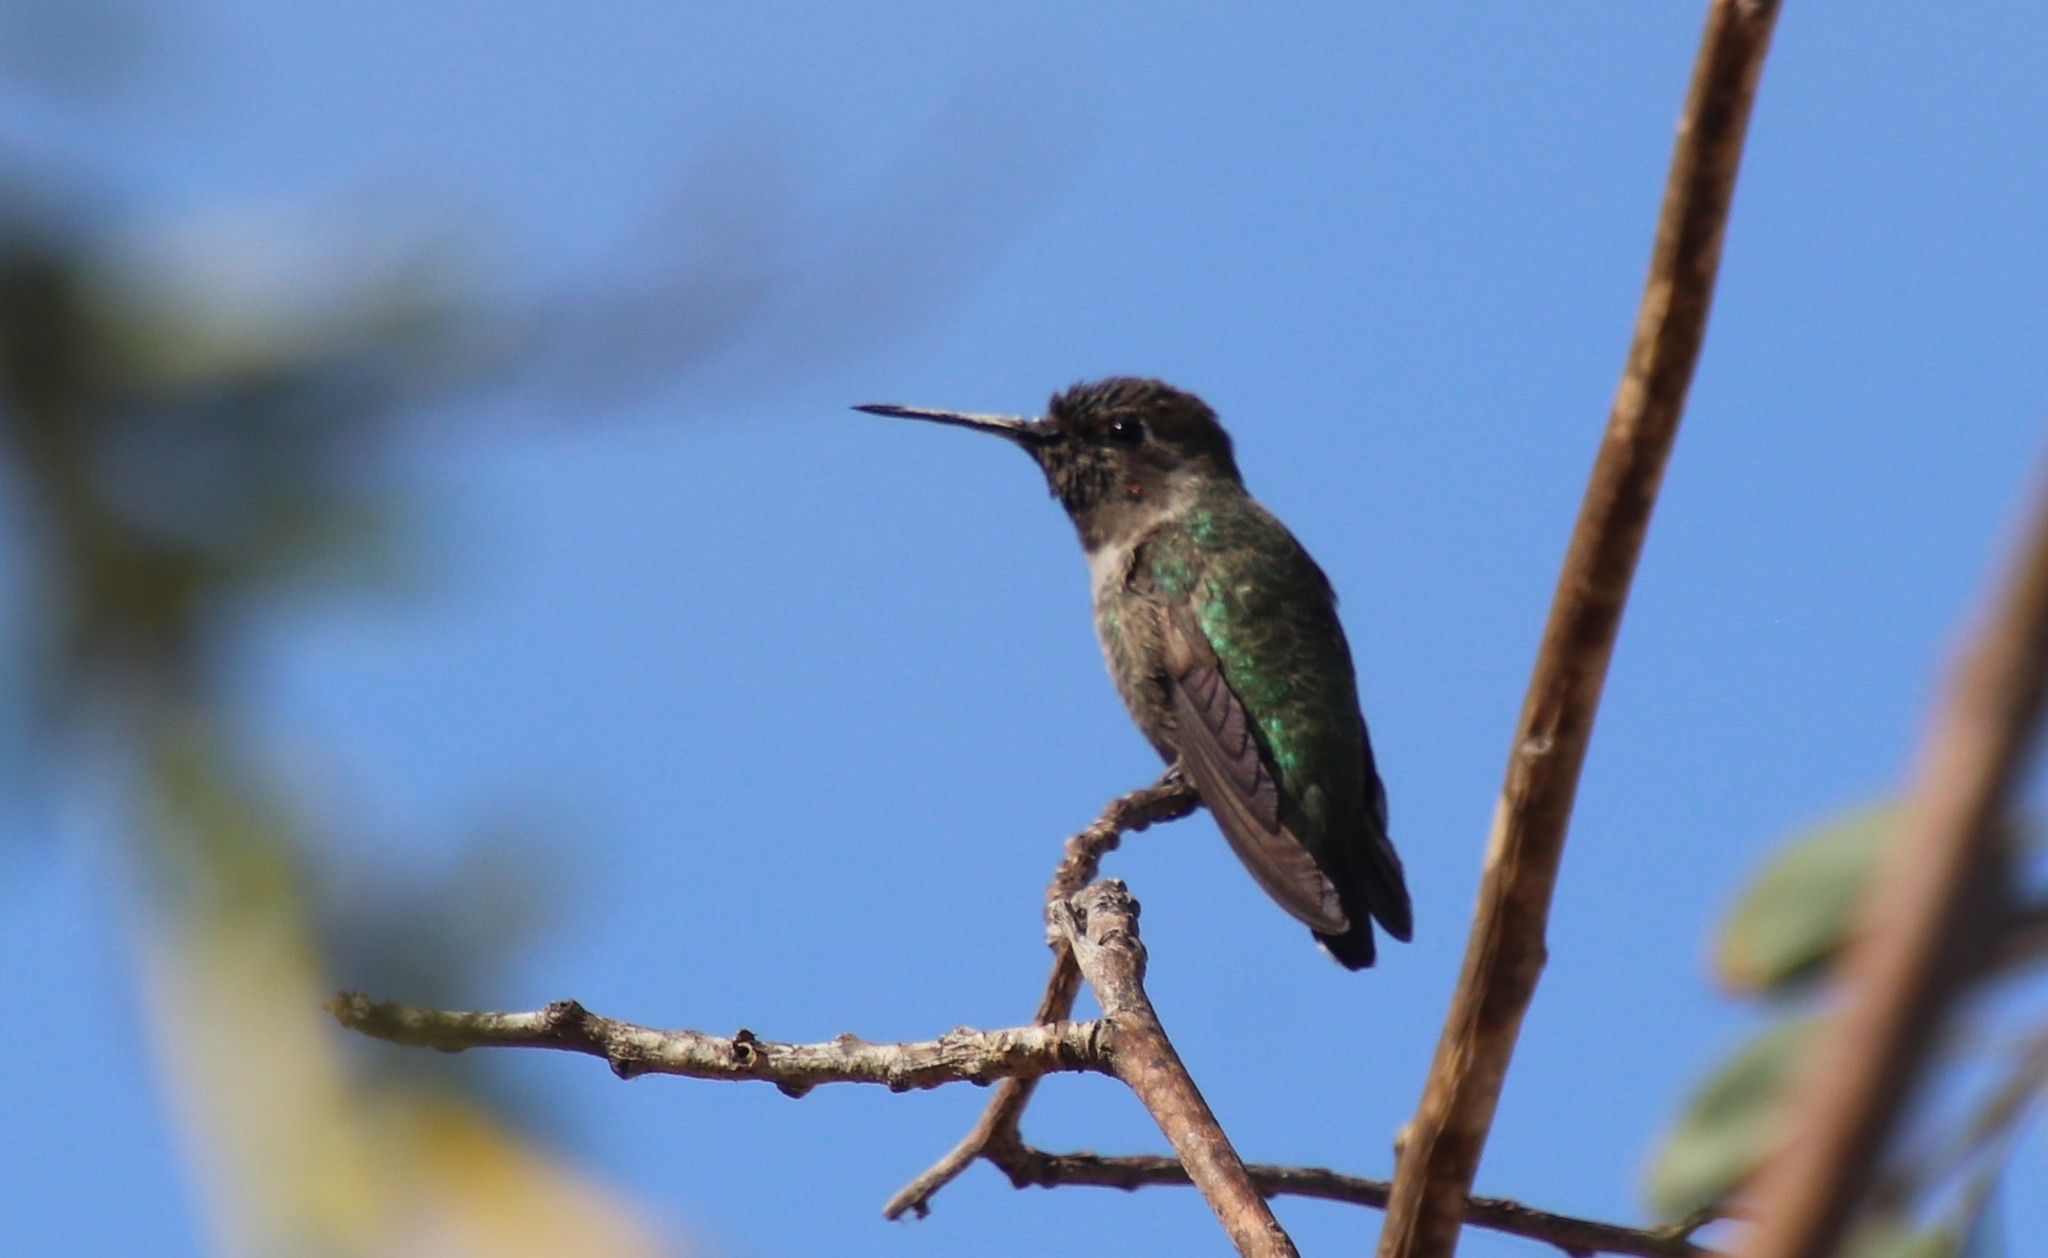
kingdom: Animalia
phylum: Chordata
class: Aves
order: Apodiformes
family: Trochilidae
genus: Calypte
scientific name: Calypte anna
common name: Anna's hummingbird
